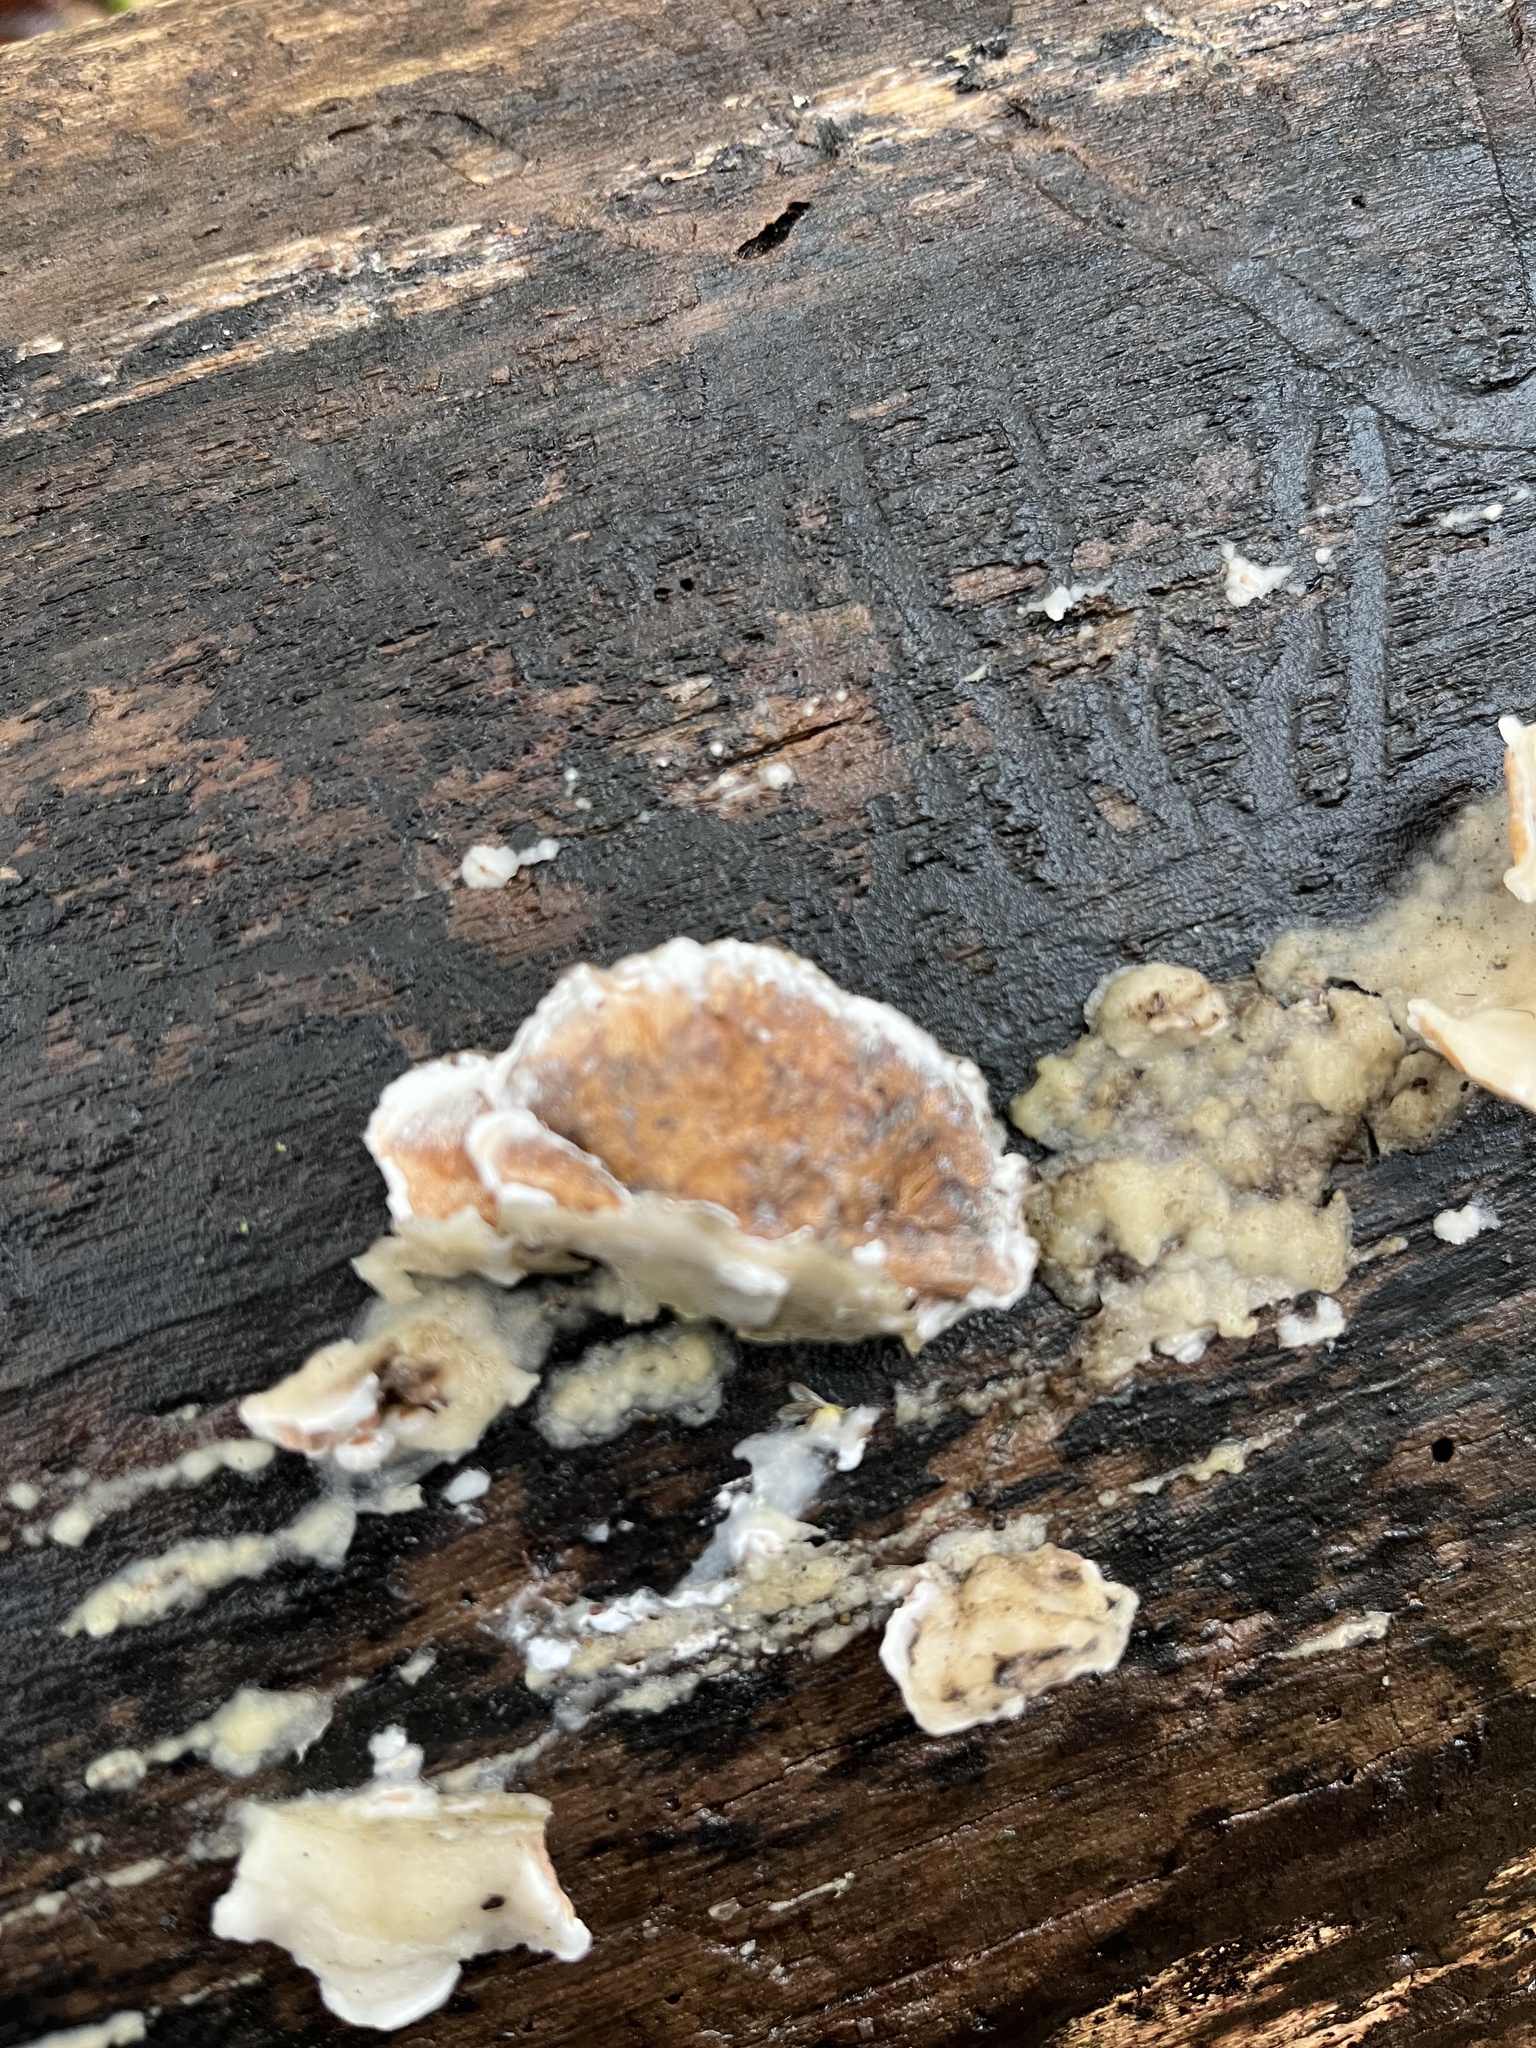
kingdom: Fungi
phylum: Basidiomycota
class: Agaricomycetes
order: Polyporales
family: Irpicaceae
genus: Vitreoporus
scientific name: Vitreoporus dichrous
